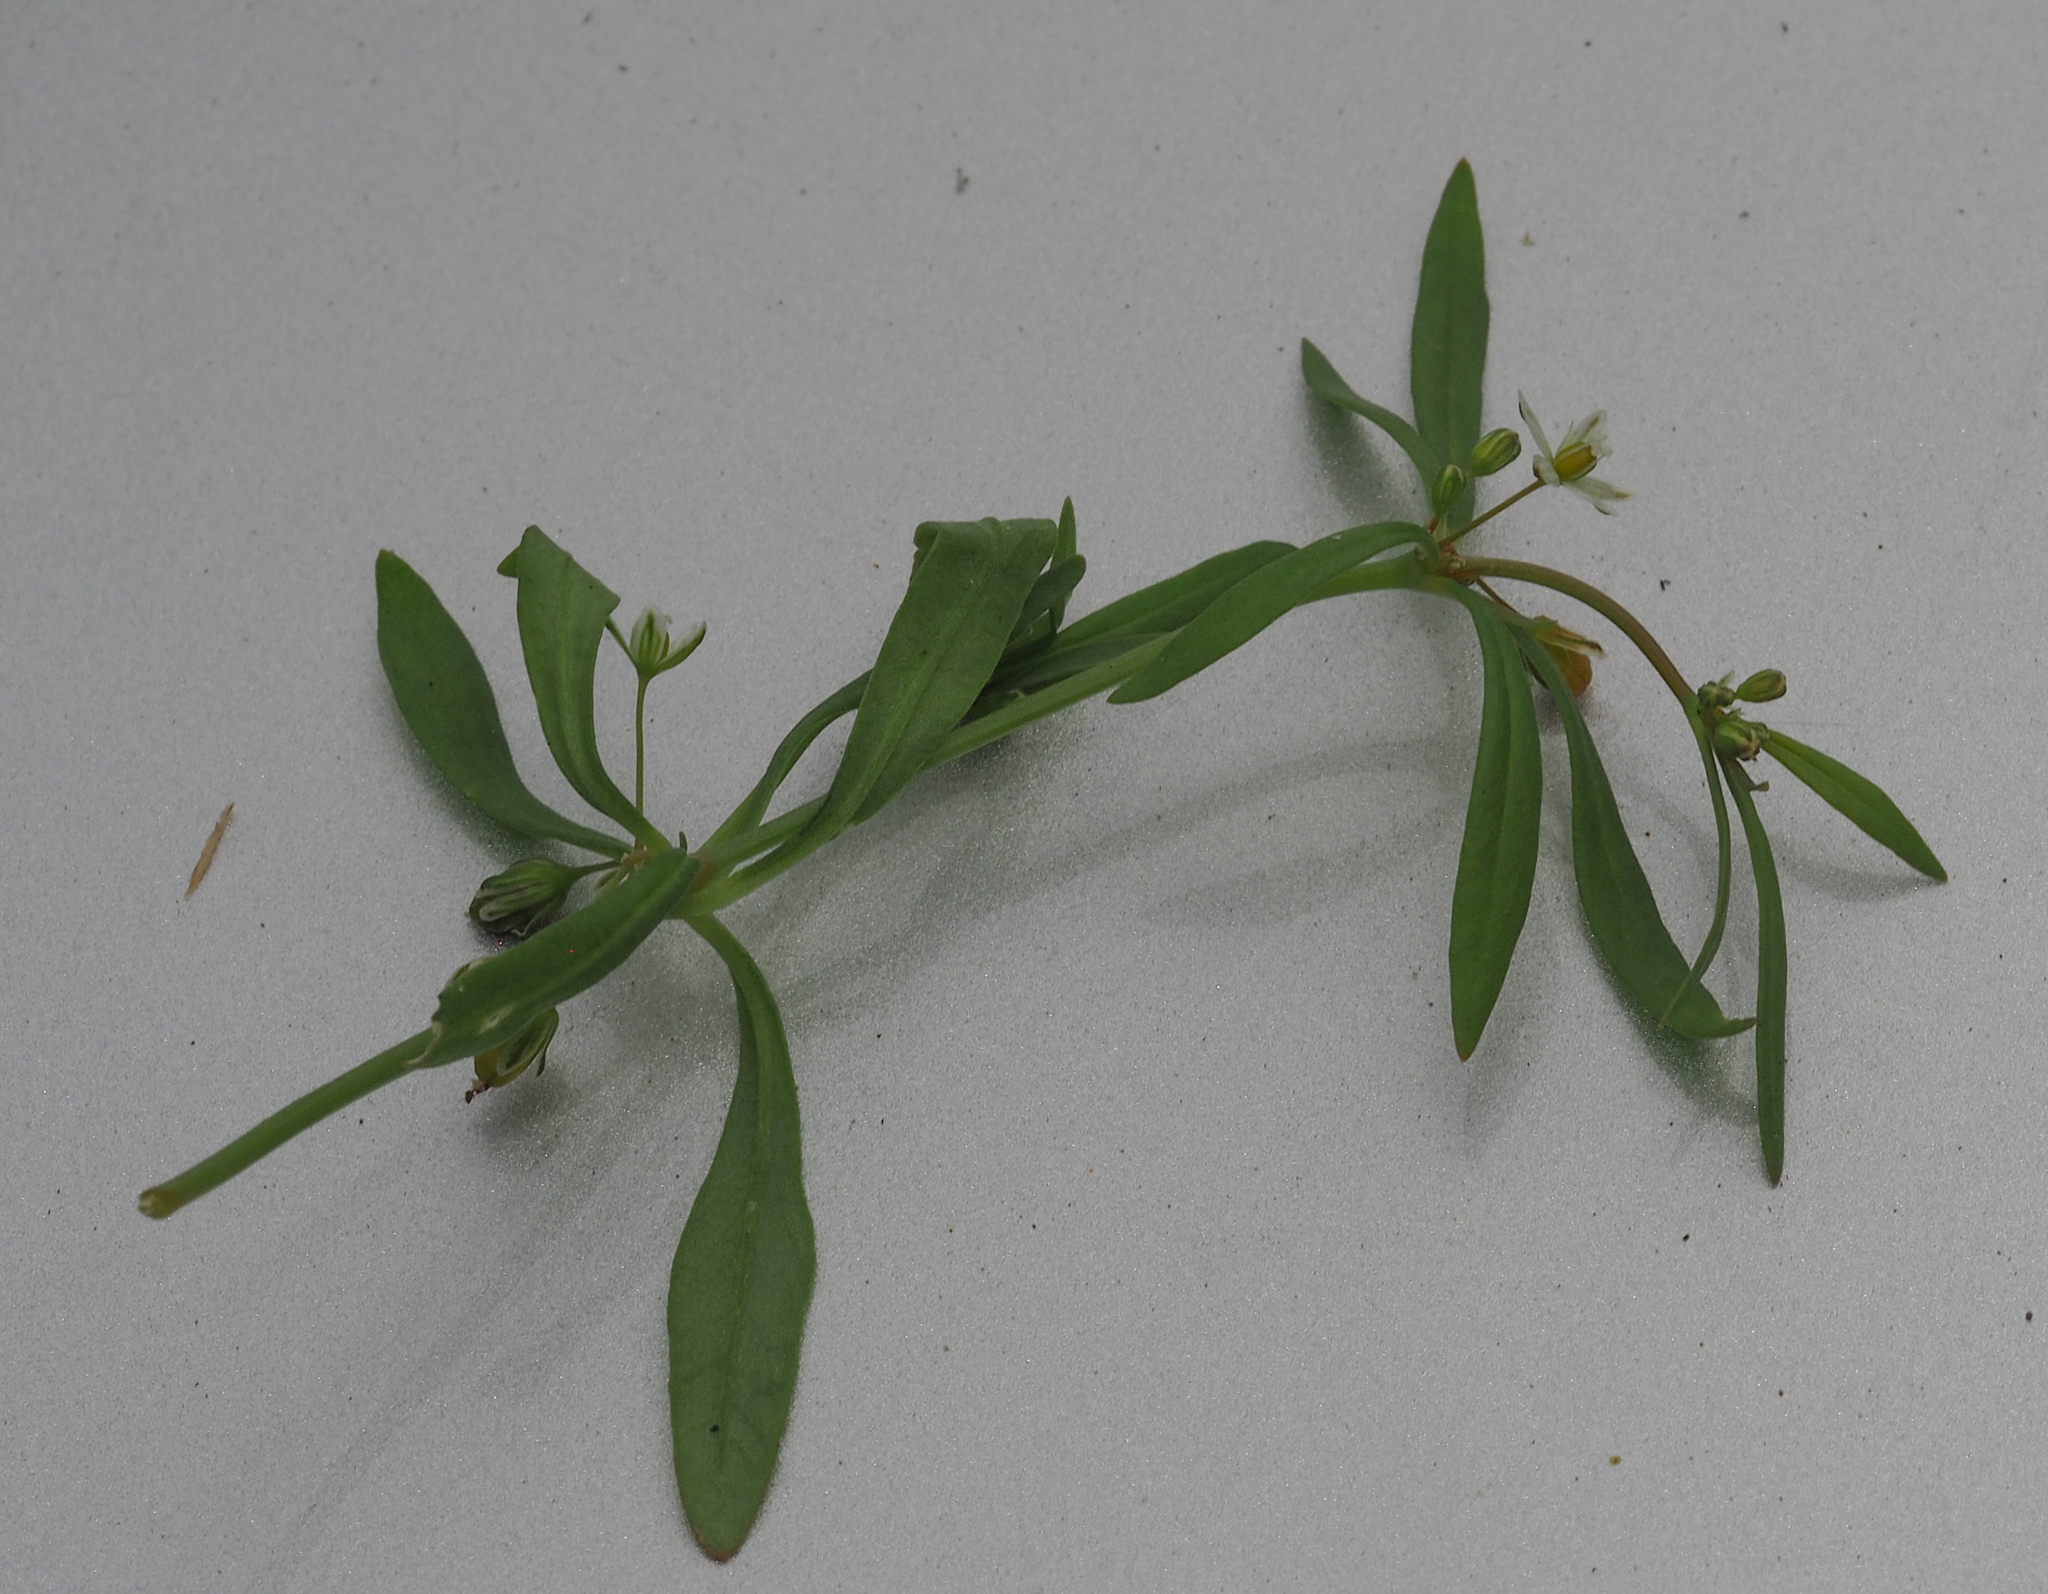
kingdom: Plantae
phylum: Tracheophyta
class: Magnoliopsida
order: Caryophyllales
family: Molluginaceae
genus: Mollugo
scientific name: Mollugo verticillata
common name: Green carpetweed
